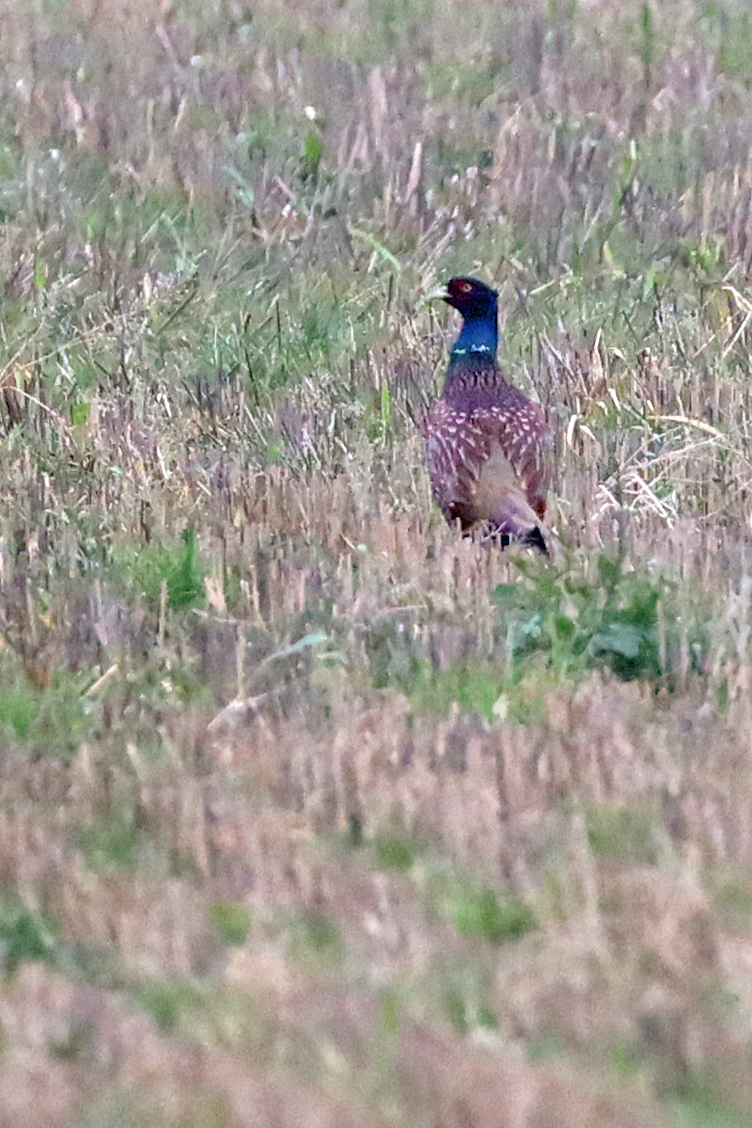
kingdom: Animalia
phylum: Chordata
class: Aves
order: Galliformes
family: Phasianidae
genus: Phasianus
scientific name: Phasianus colchicus
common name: Common pheasant
